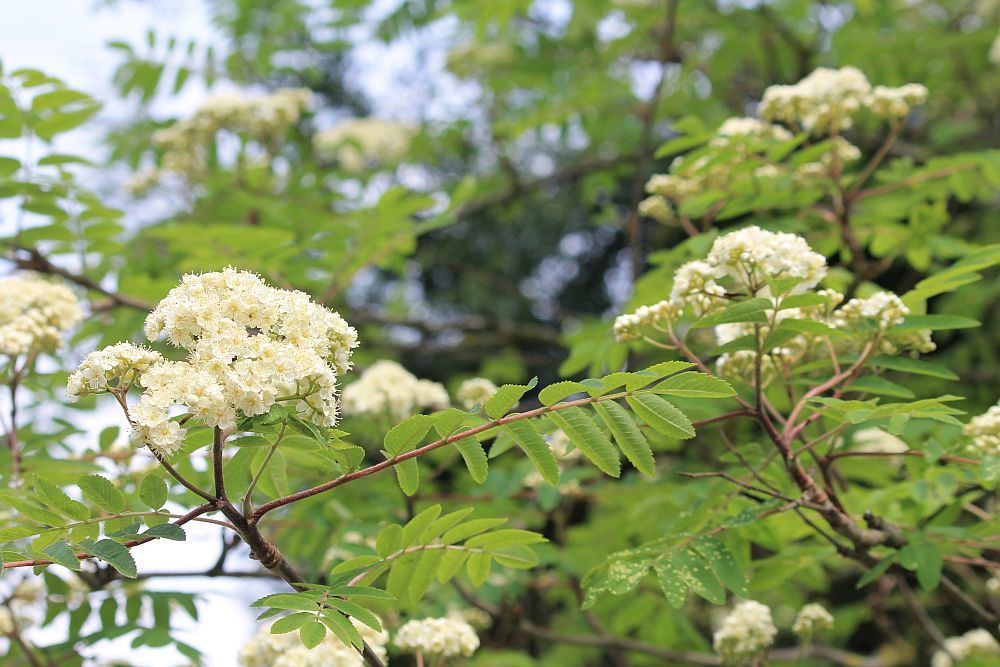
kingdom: Plantae
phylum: Tracheophyta
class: Magnoliopsida
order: Rosales
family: Rosaceae
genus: Sorbus
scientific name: Sorbus aucuparia
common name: Rowan
